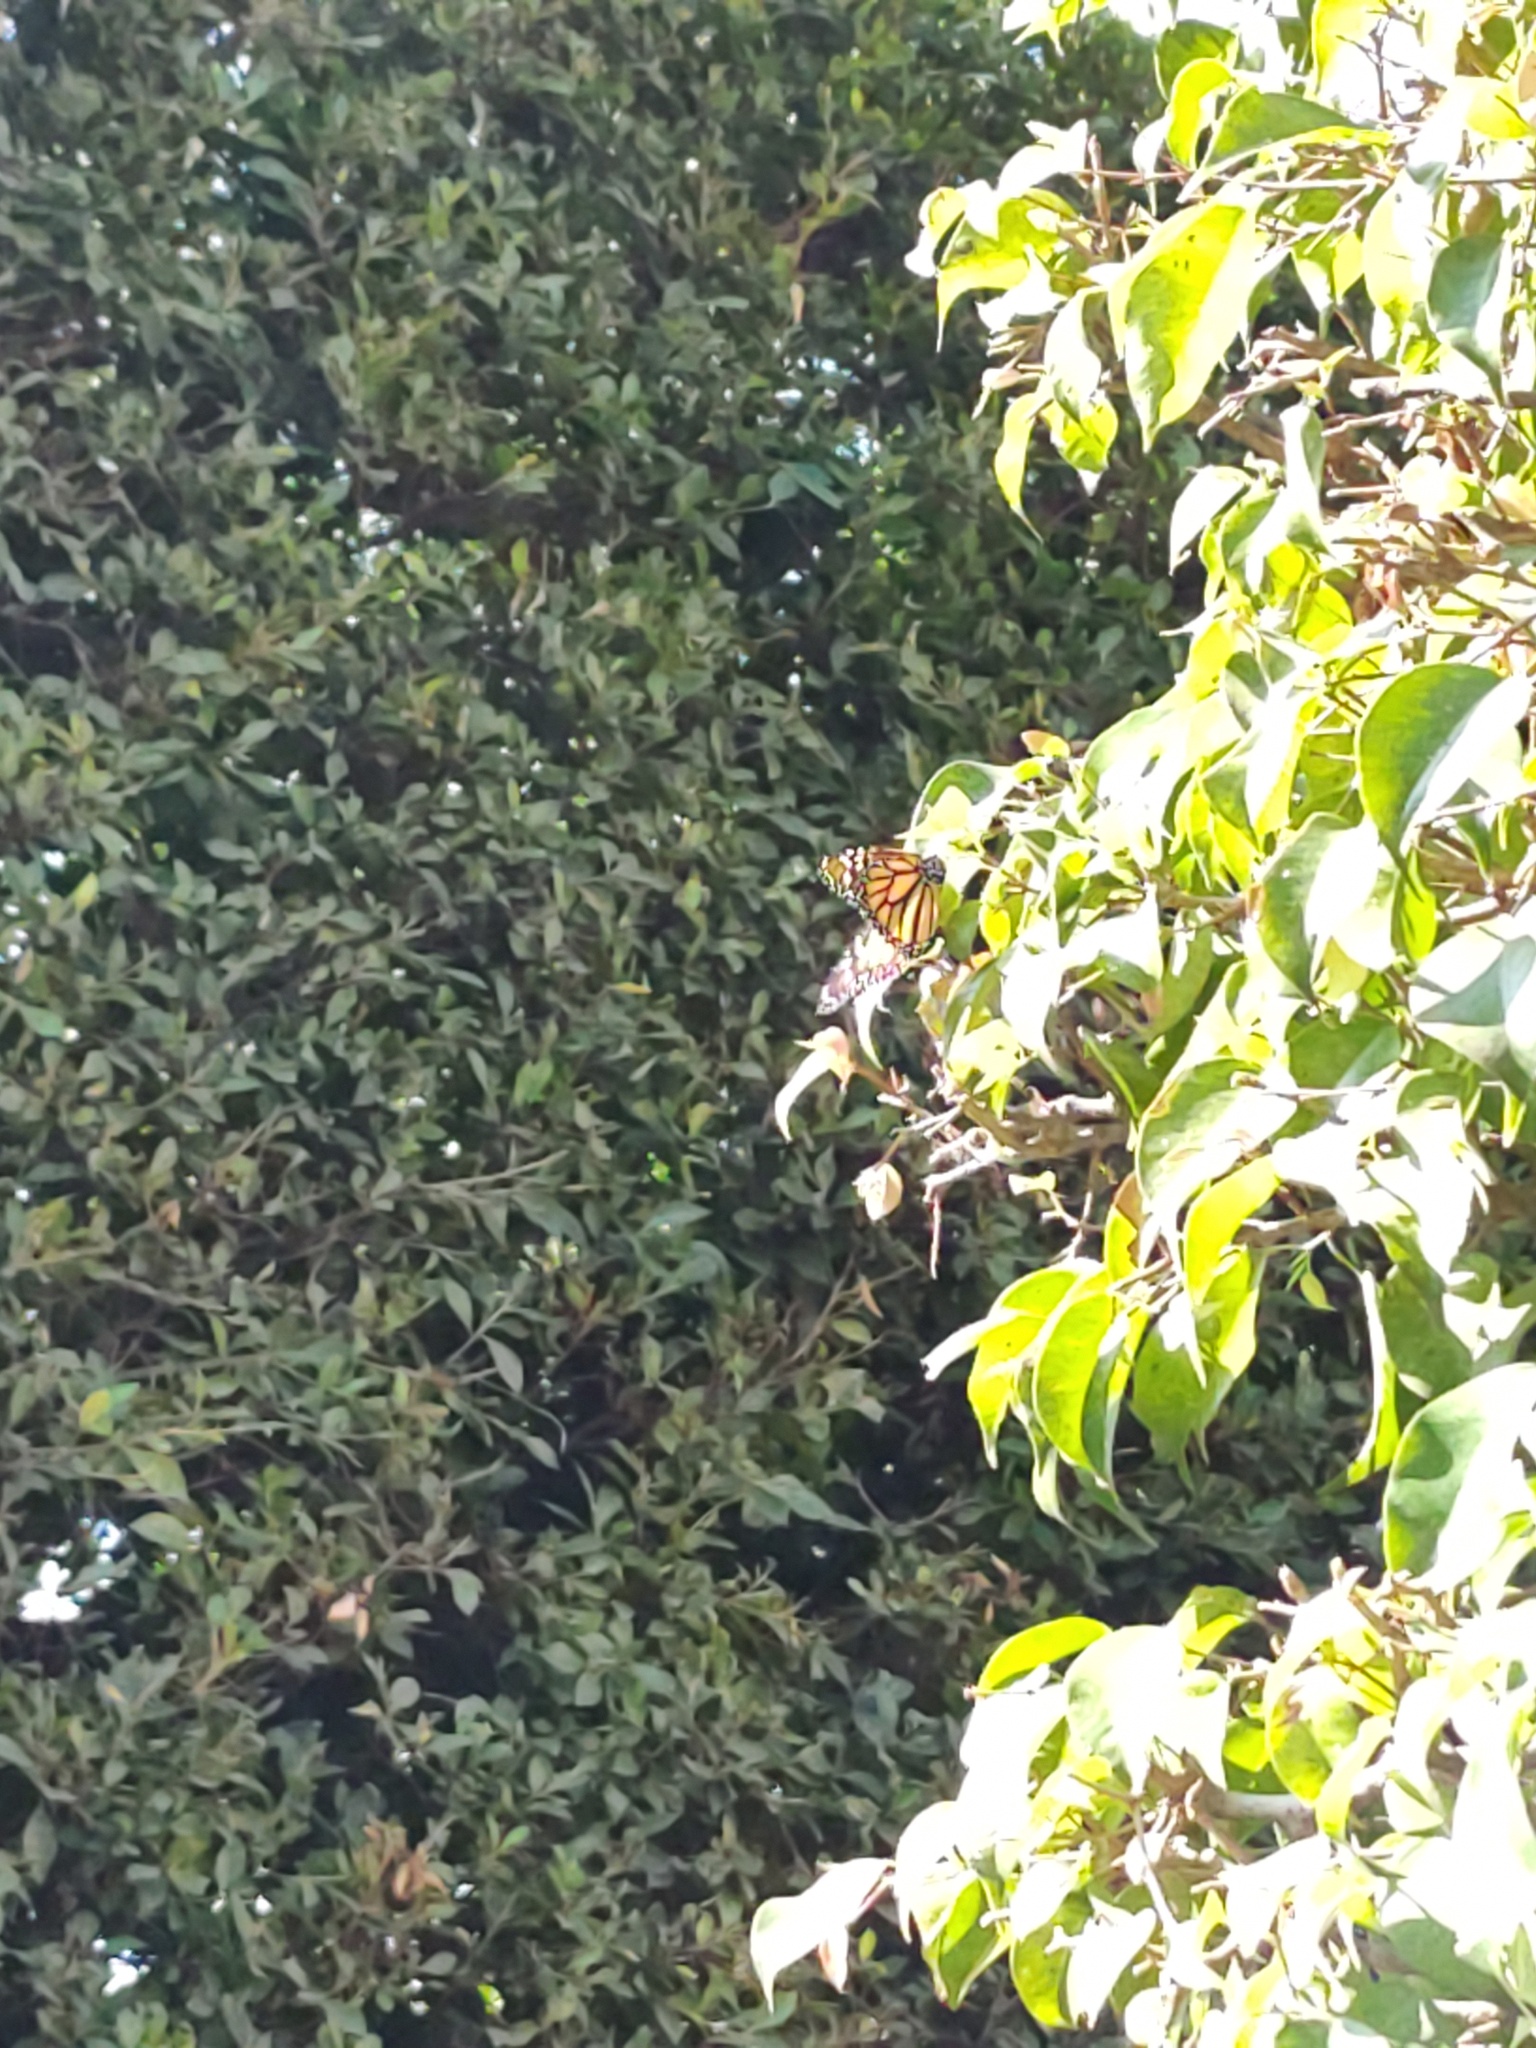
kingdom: Animalia
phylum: Arthropoda
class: Insecta
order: Lepidoptera
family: Nymphalidae
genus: Danaus
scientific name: Danaus plexippus
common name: Monarch
